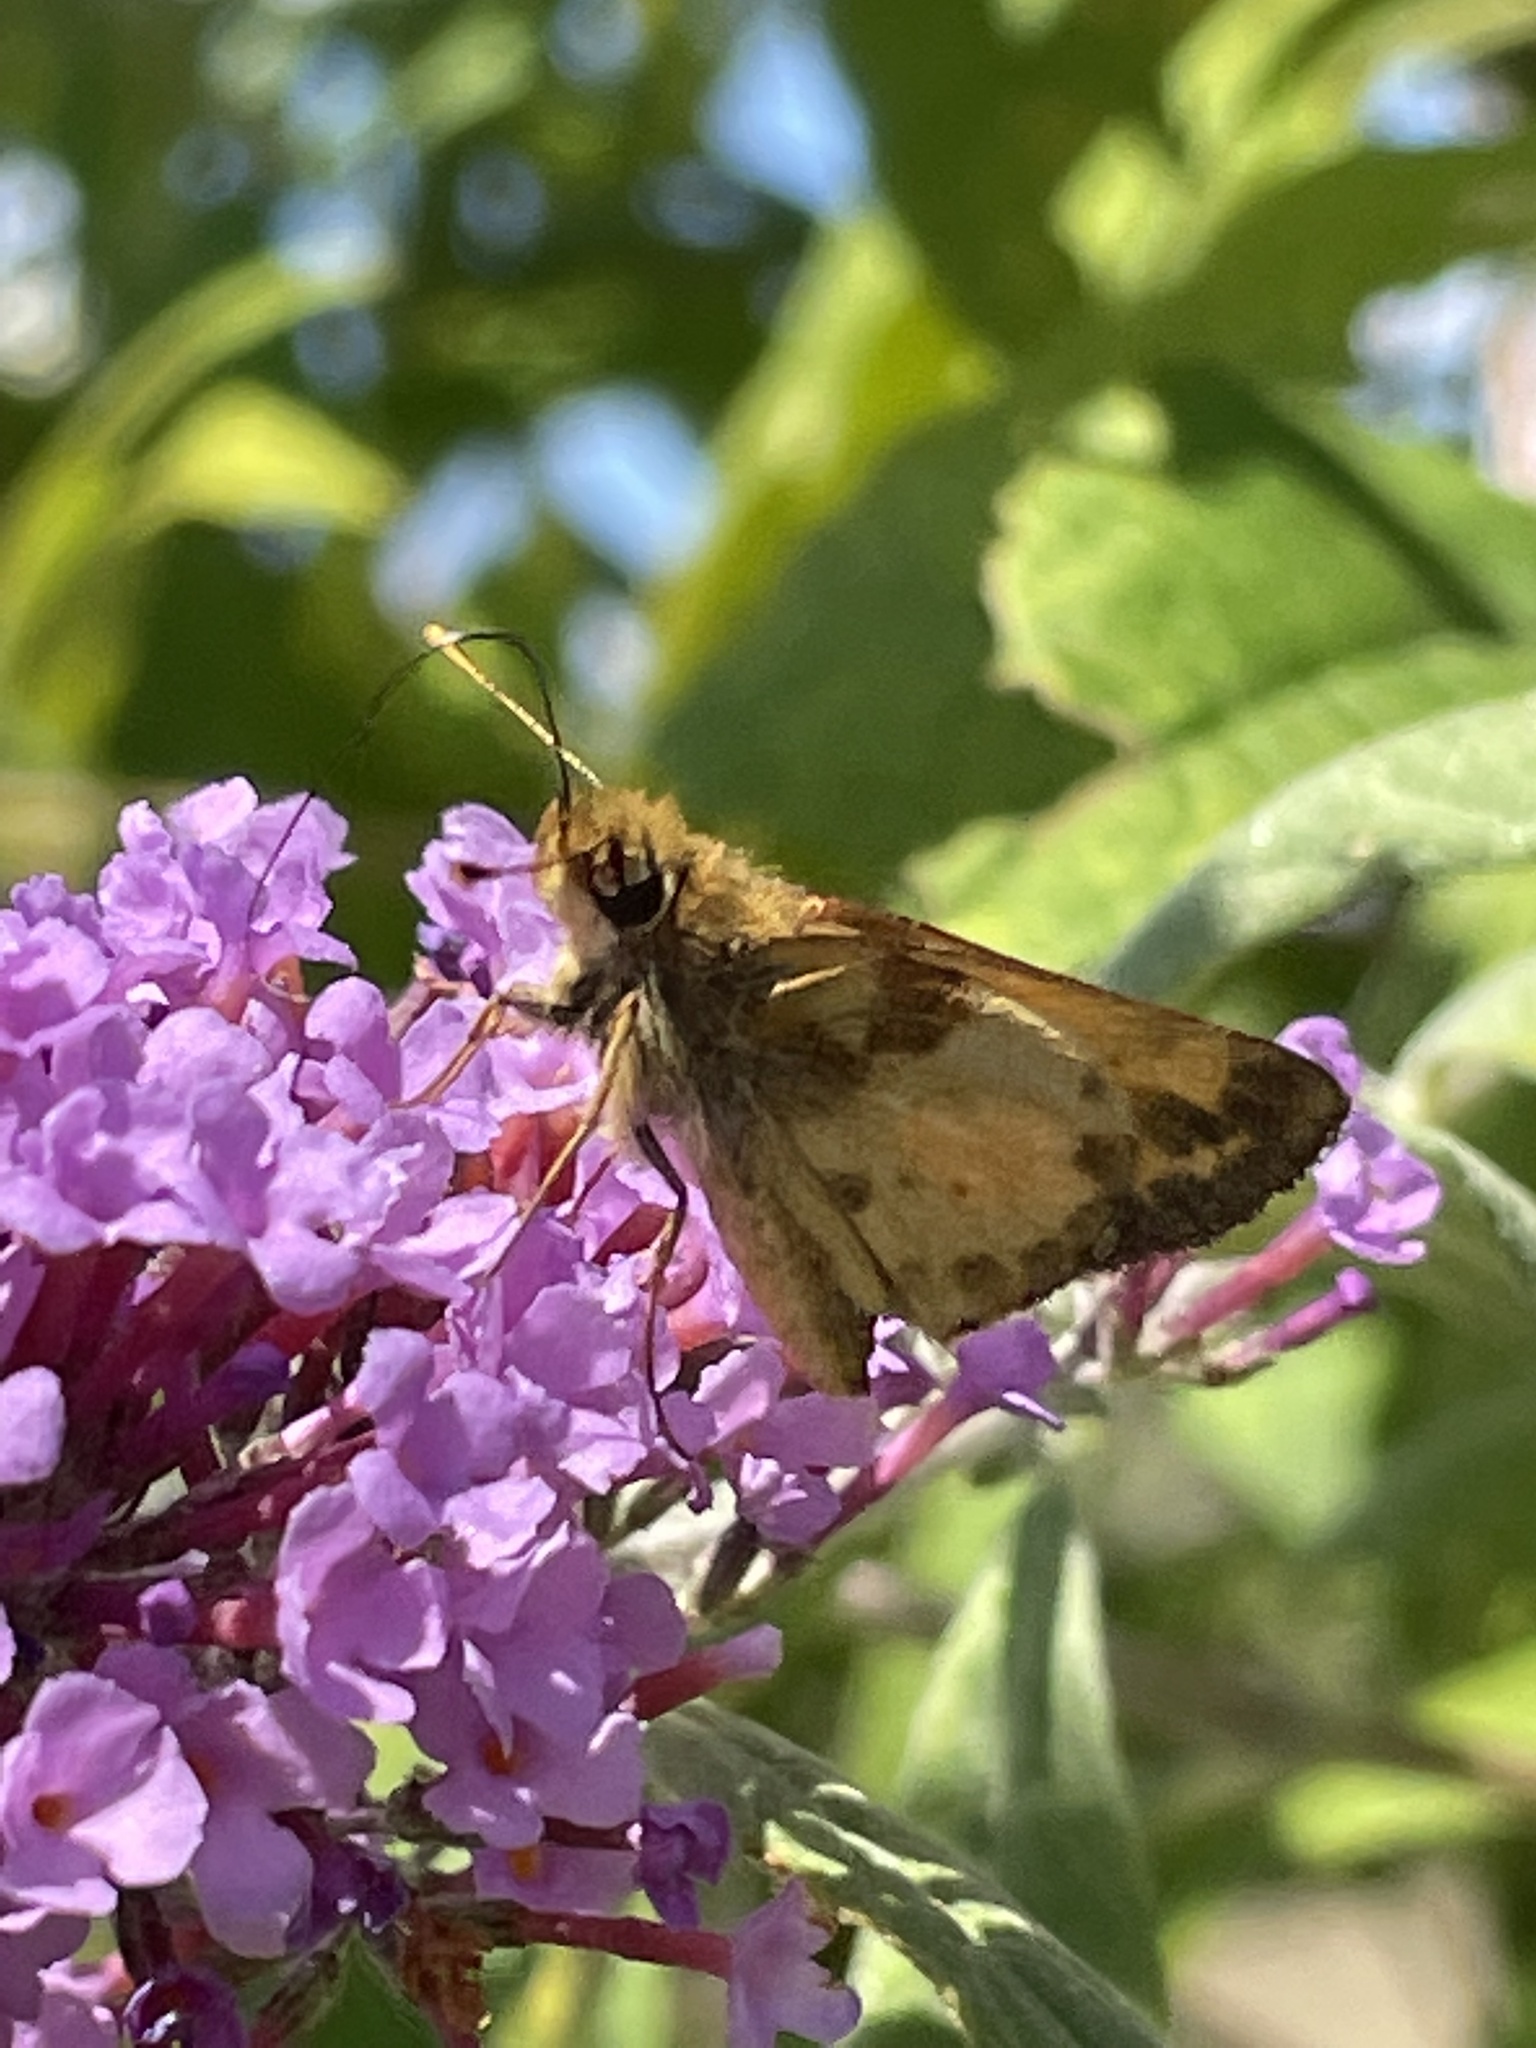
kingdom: Animalia
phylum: Arthropoda
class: Insecta
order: Lepidoptera
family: Hesperiidae
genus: Lon
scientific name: Lon zabulon
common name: Zabulon skipper
